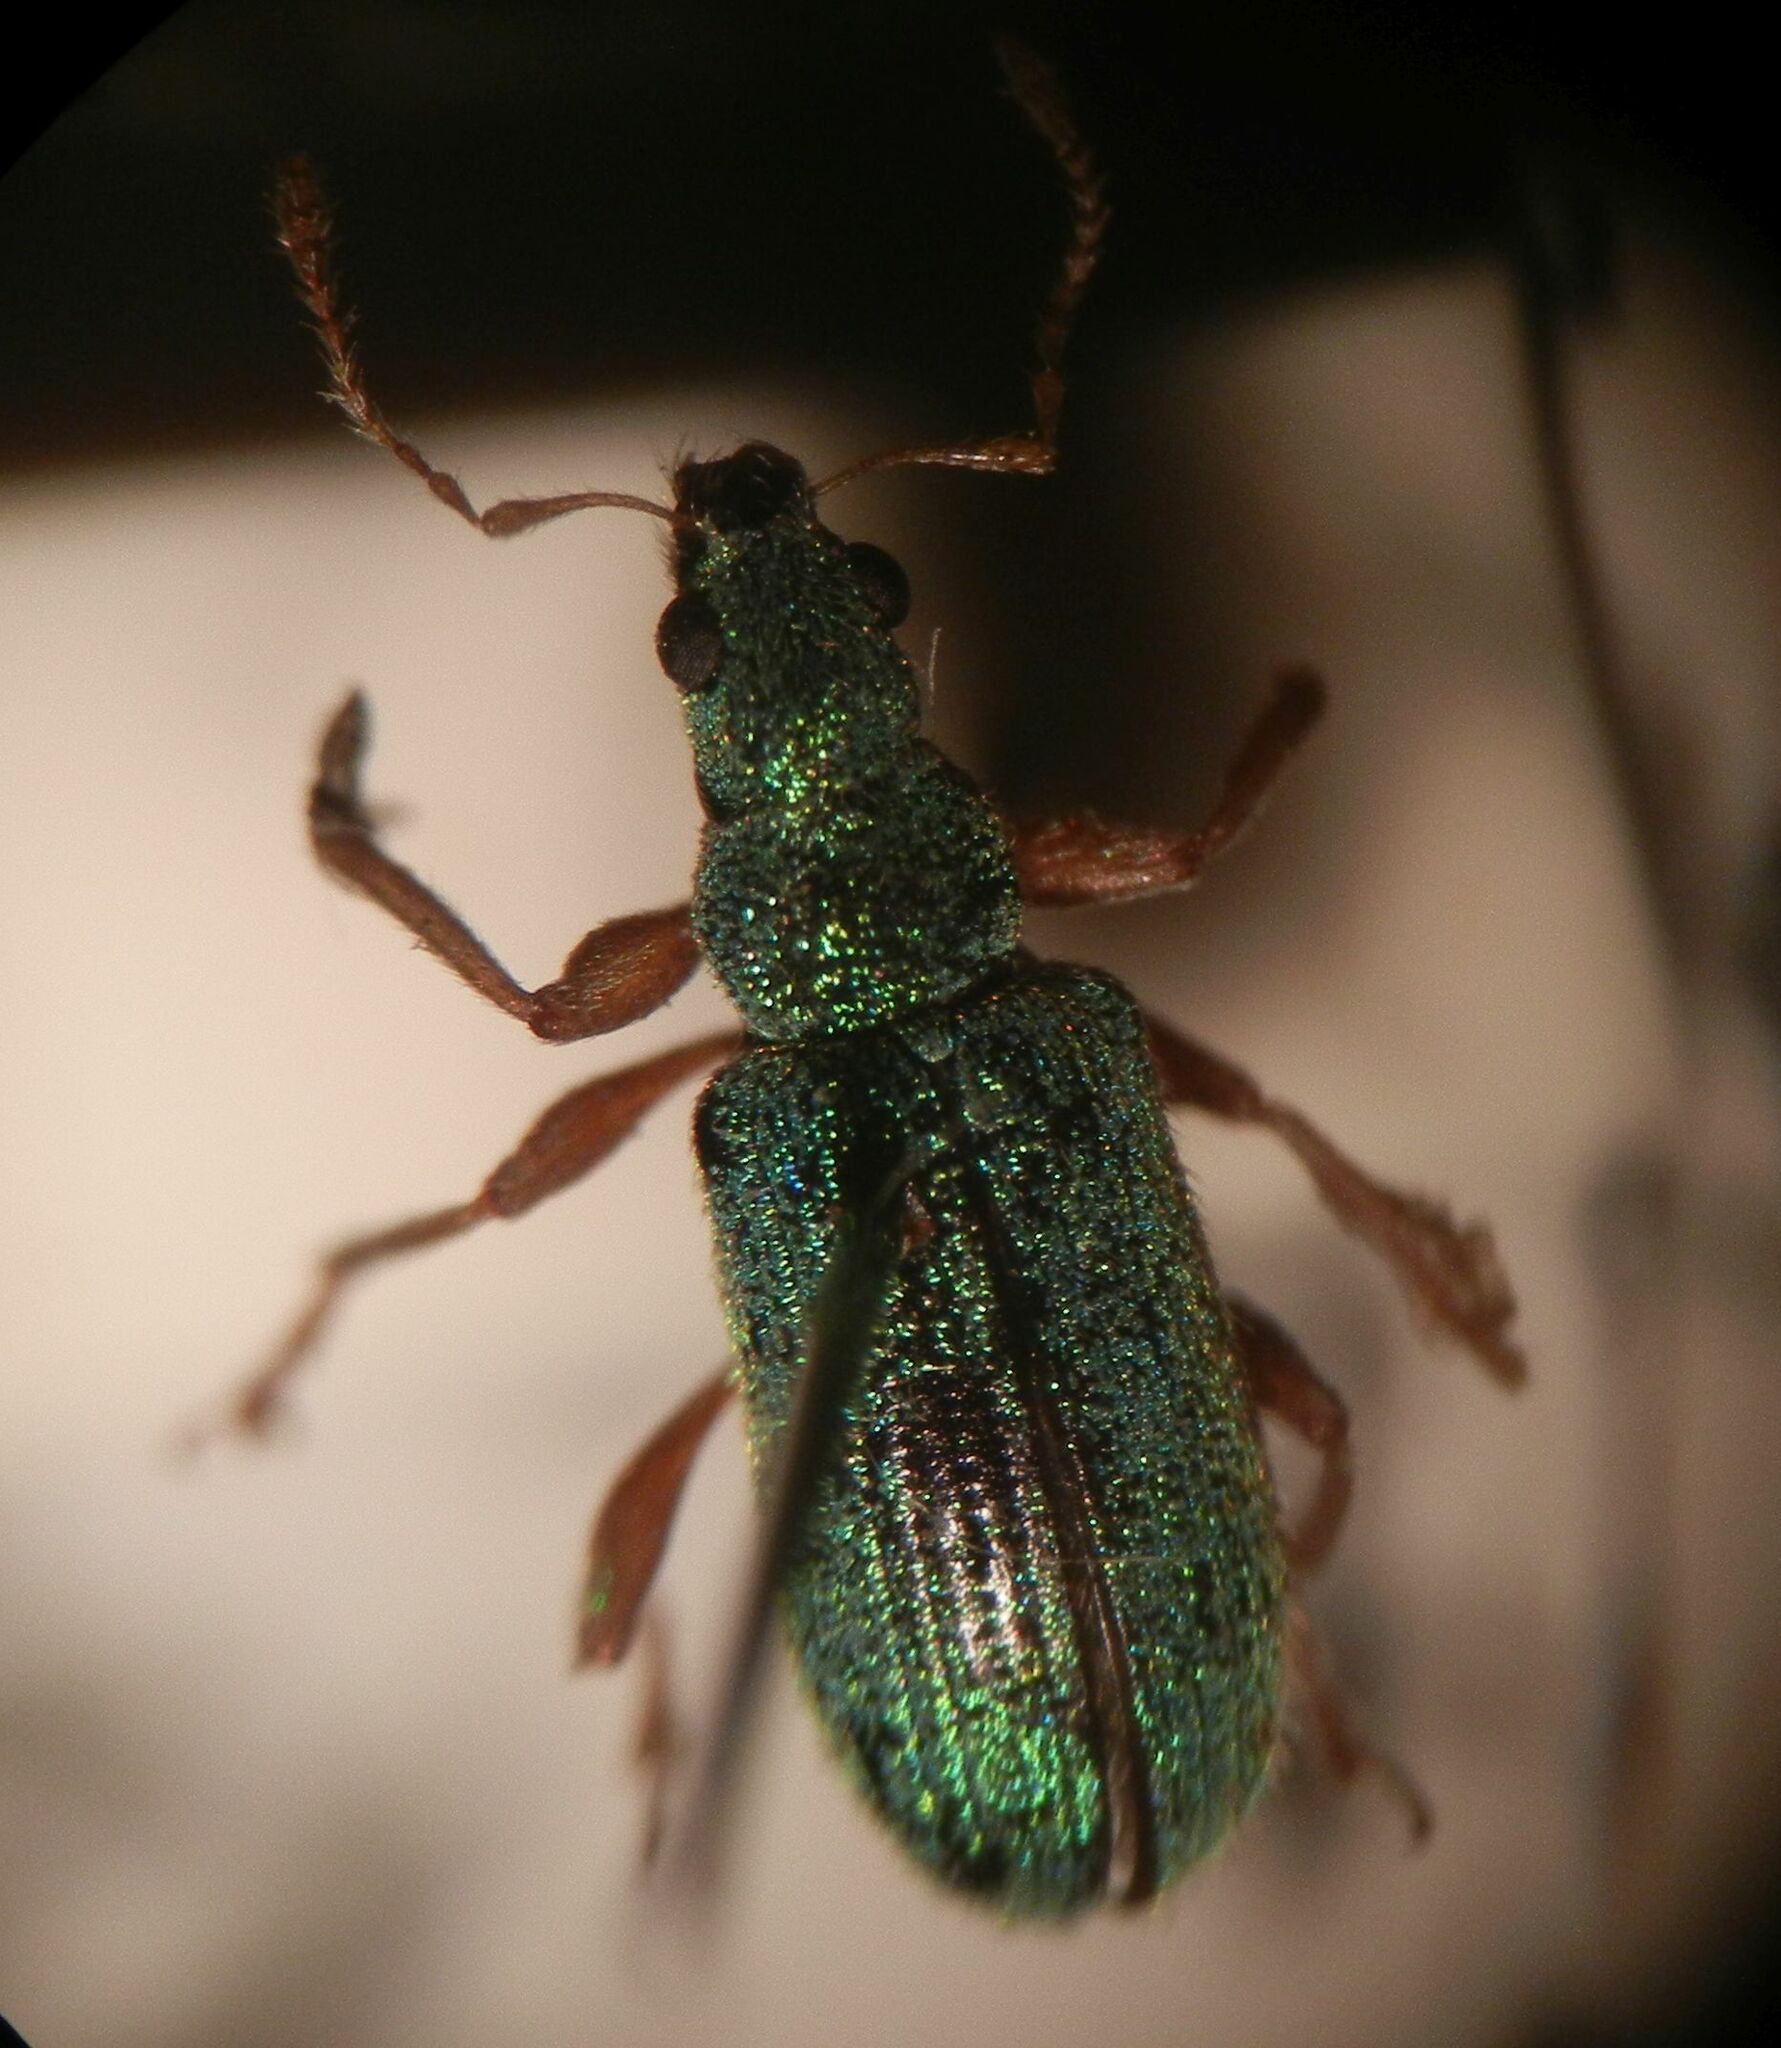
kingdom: Animalia
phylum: Arthropoda
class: Insecta
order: Coleoptera
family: Curculionidae
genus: Polydrusus
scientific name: Polydrusus pterygomalis
